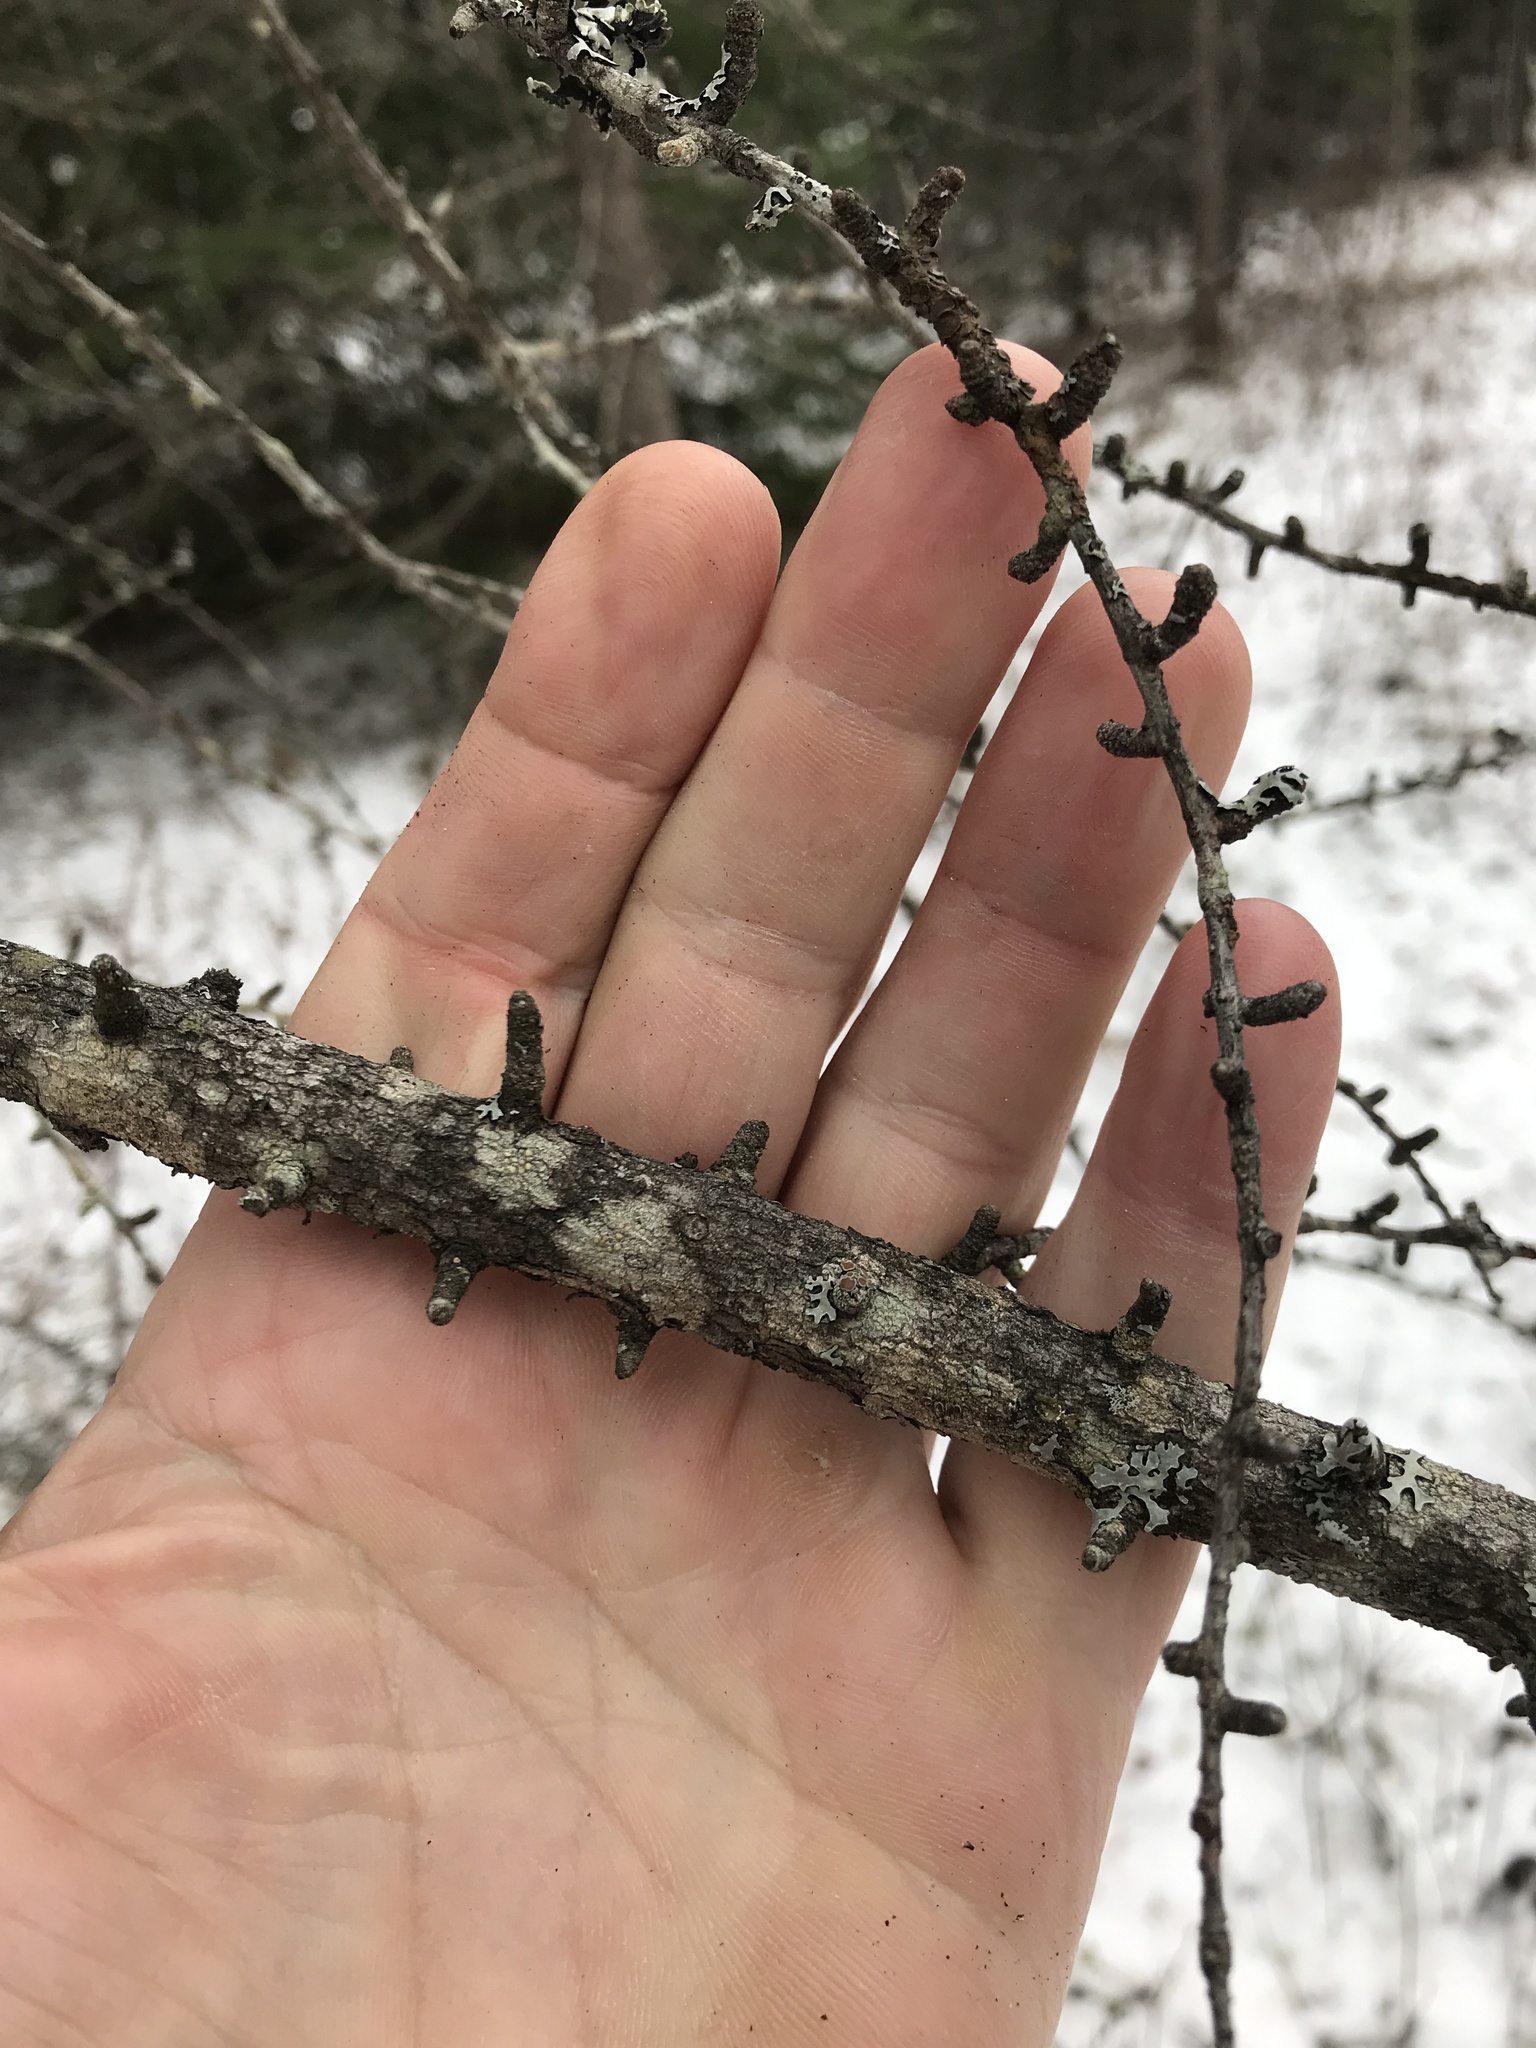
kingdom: Plantae
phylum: Tracheophyta
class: Pinopsida
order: Pinales
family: Pinaceae
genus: Larix
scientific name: Larix laricina
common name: American larch
